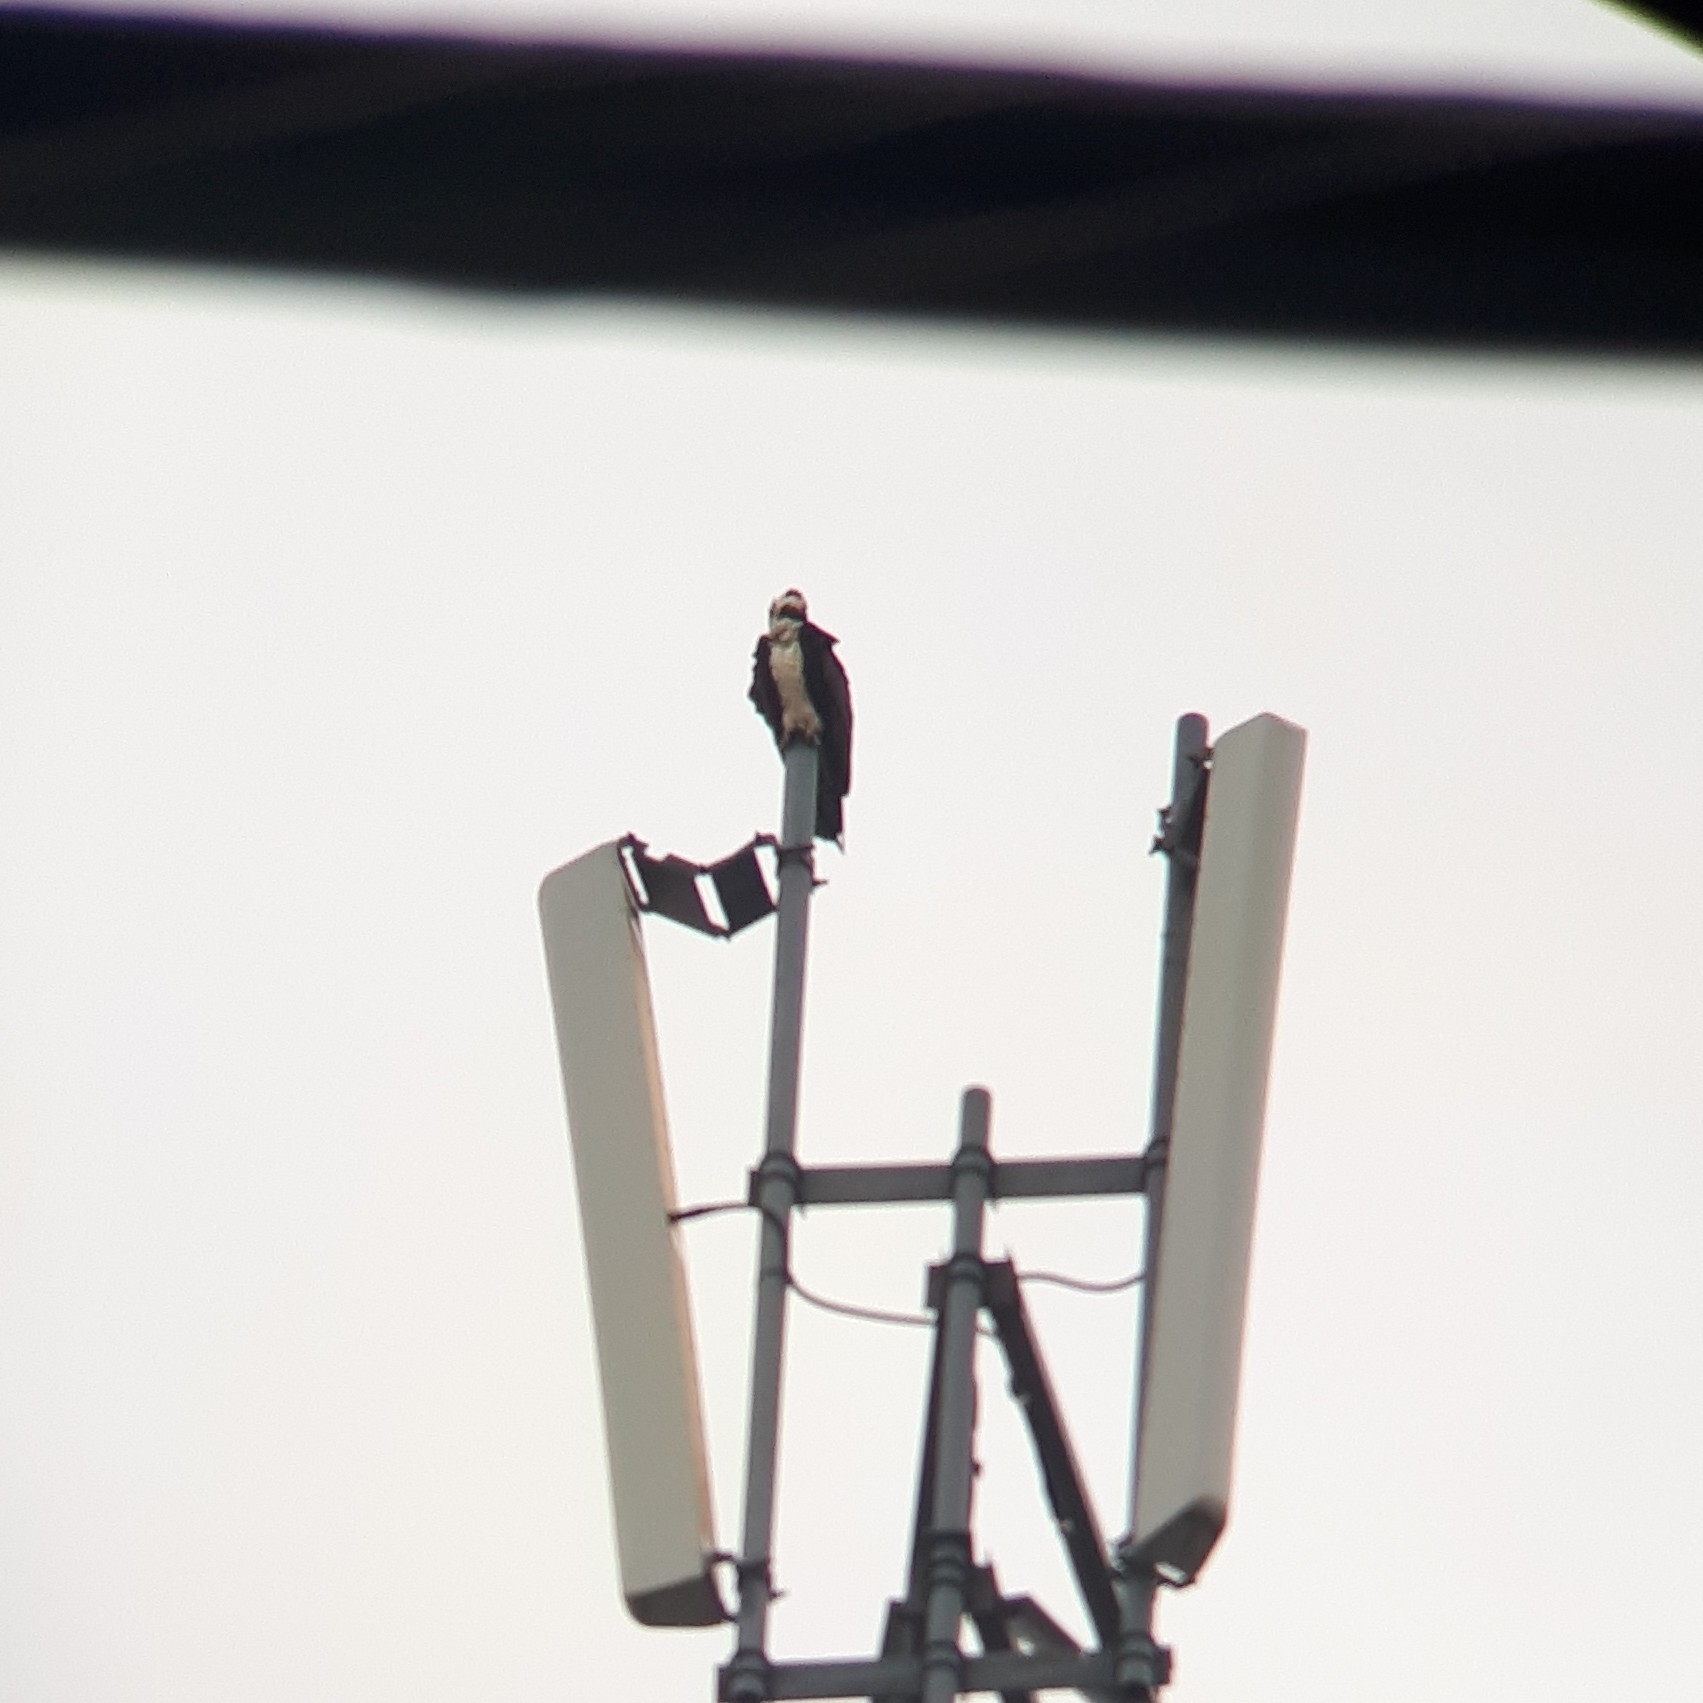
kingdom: Animalia
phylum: Chordata
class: Aves
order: Accipitriformes
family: Pandionidae
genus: Pandion
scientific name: Pandion haliaetus
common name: Osprey
